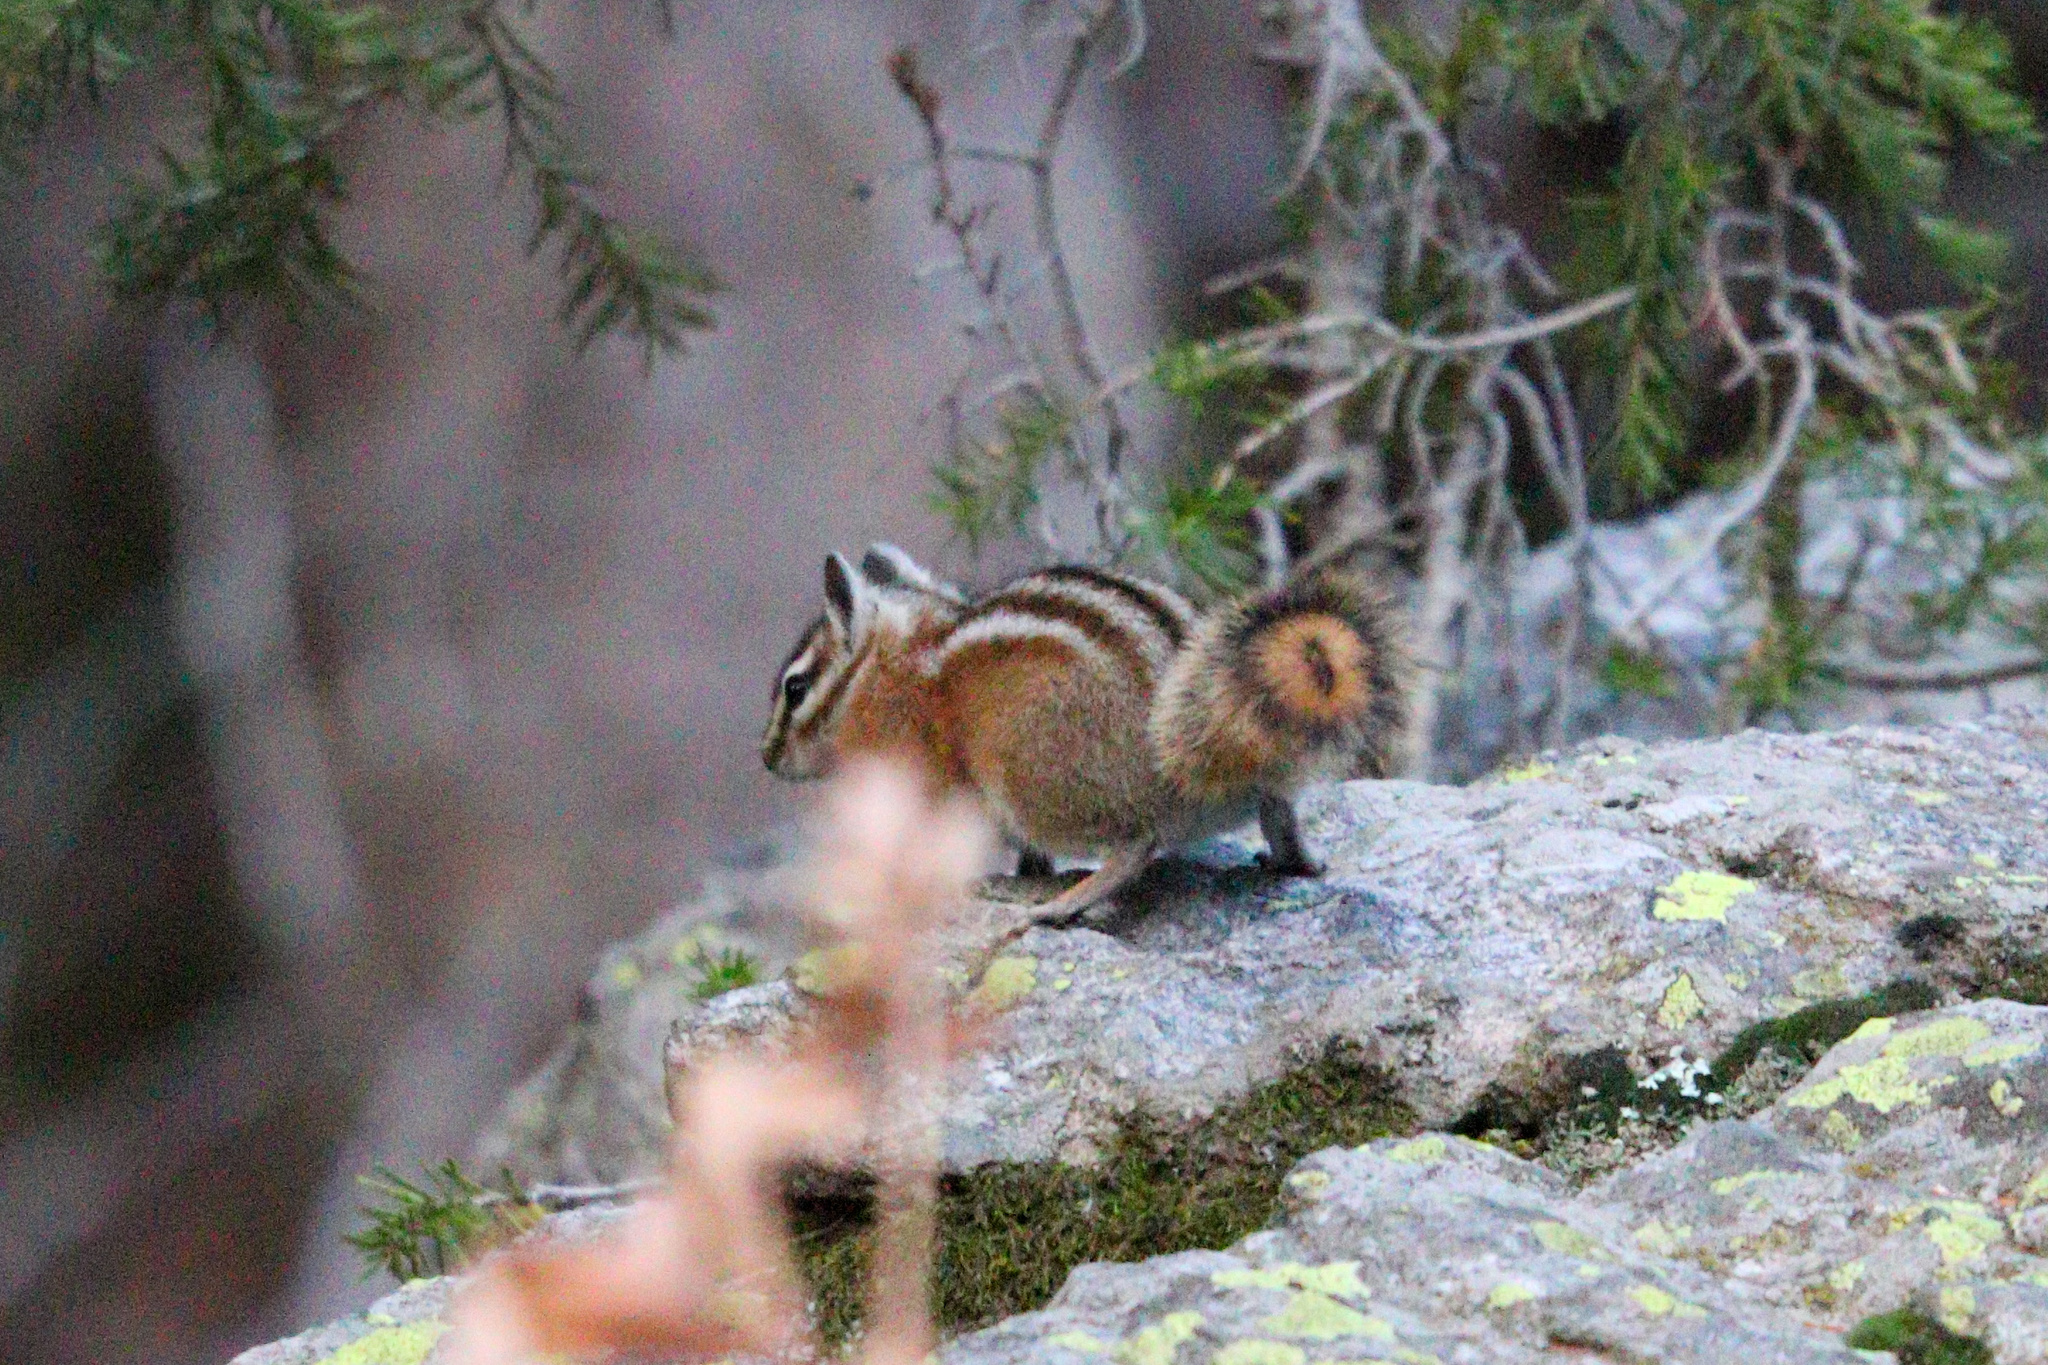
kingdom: Animalia
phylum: Chordata
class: Mammalia
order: Rodentia
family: Sciuridae
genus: Tamias
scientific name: Tamias minimus
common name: Least chipmunk
